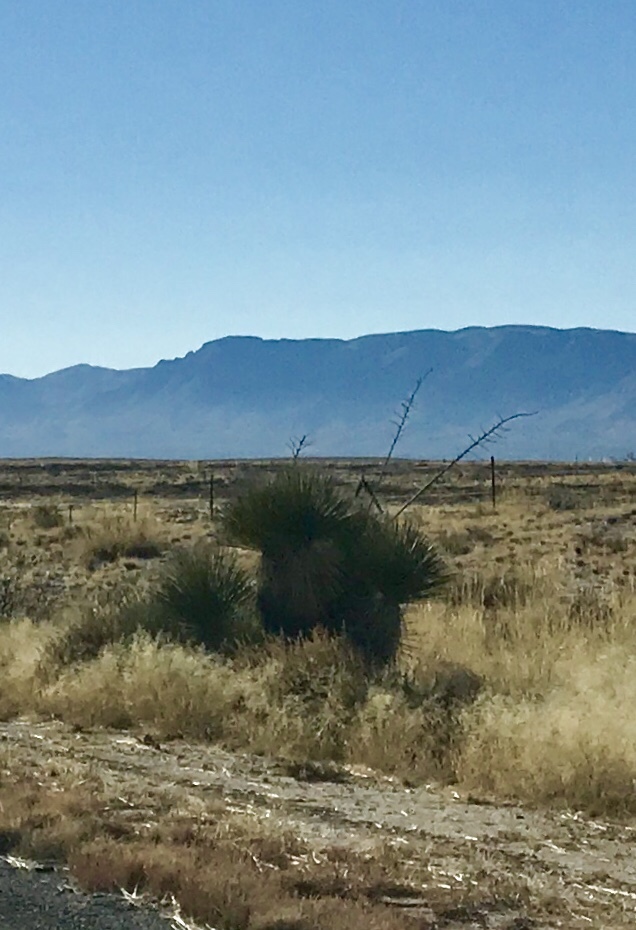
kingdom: Plantae
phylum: Tracheophyta
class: Liliopsida
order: Asparagales
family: Asparagaceae
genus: Yucca
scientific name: Yucca elata
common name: Palmella
